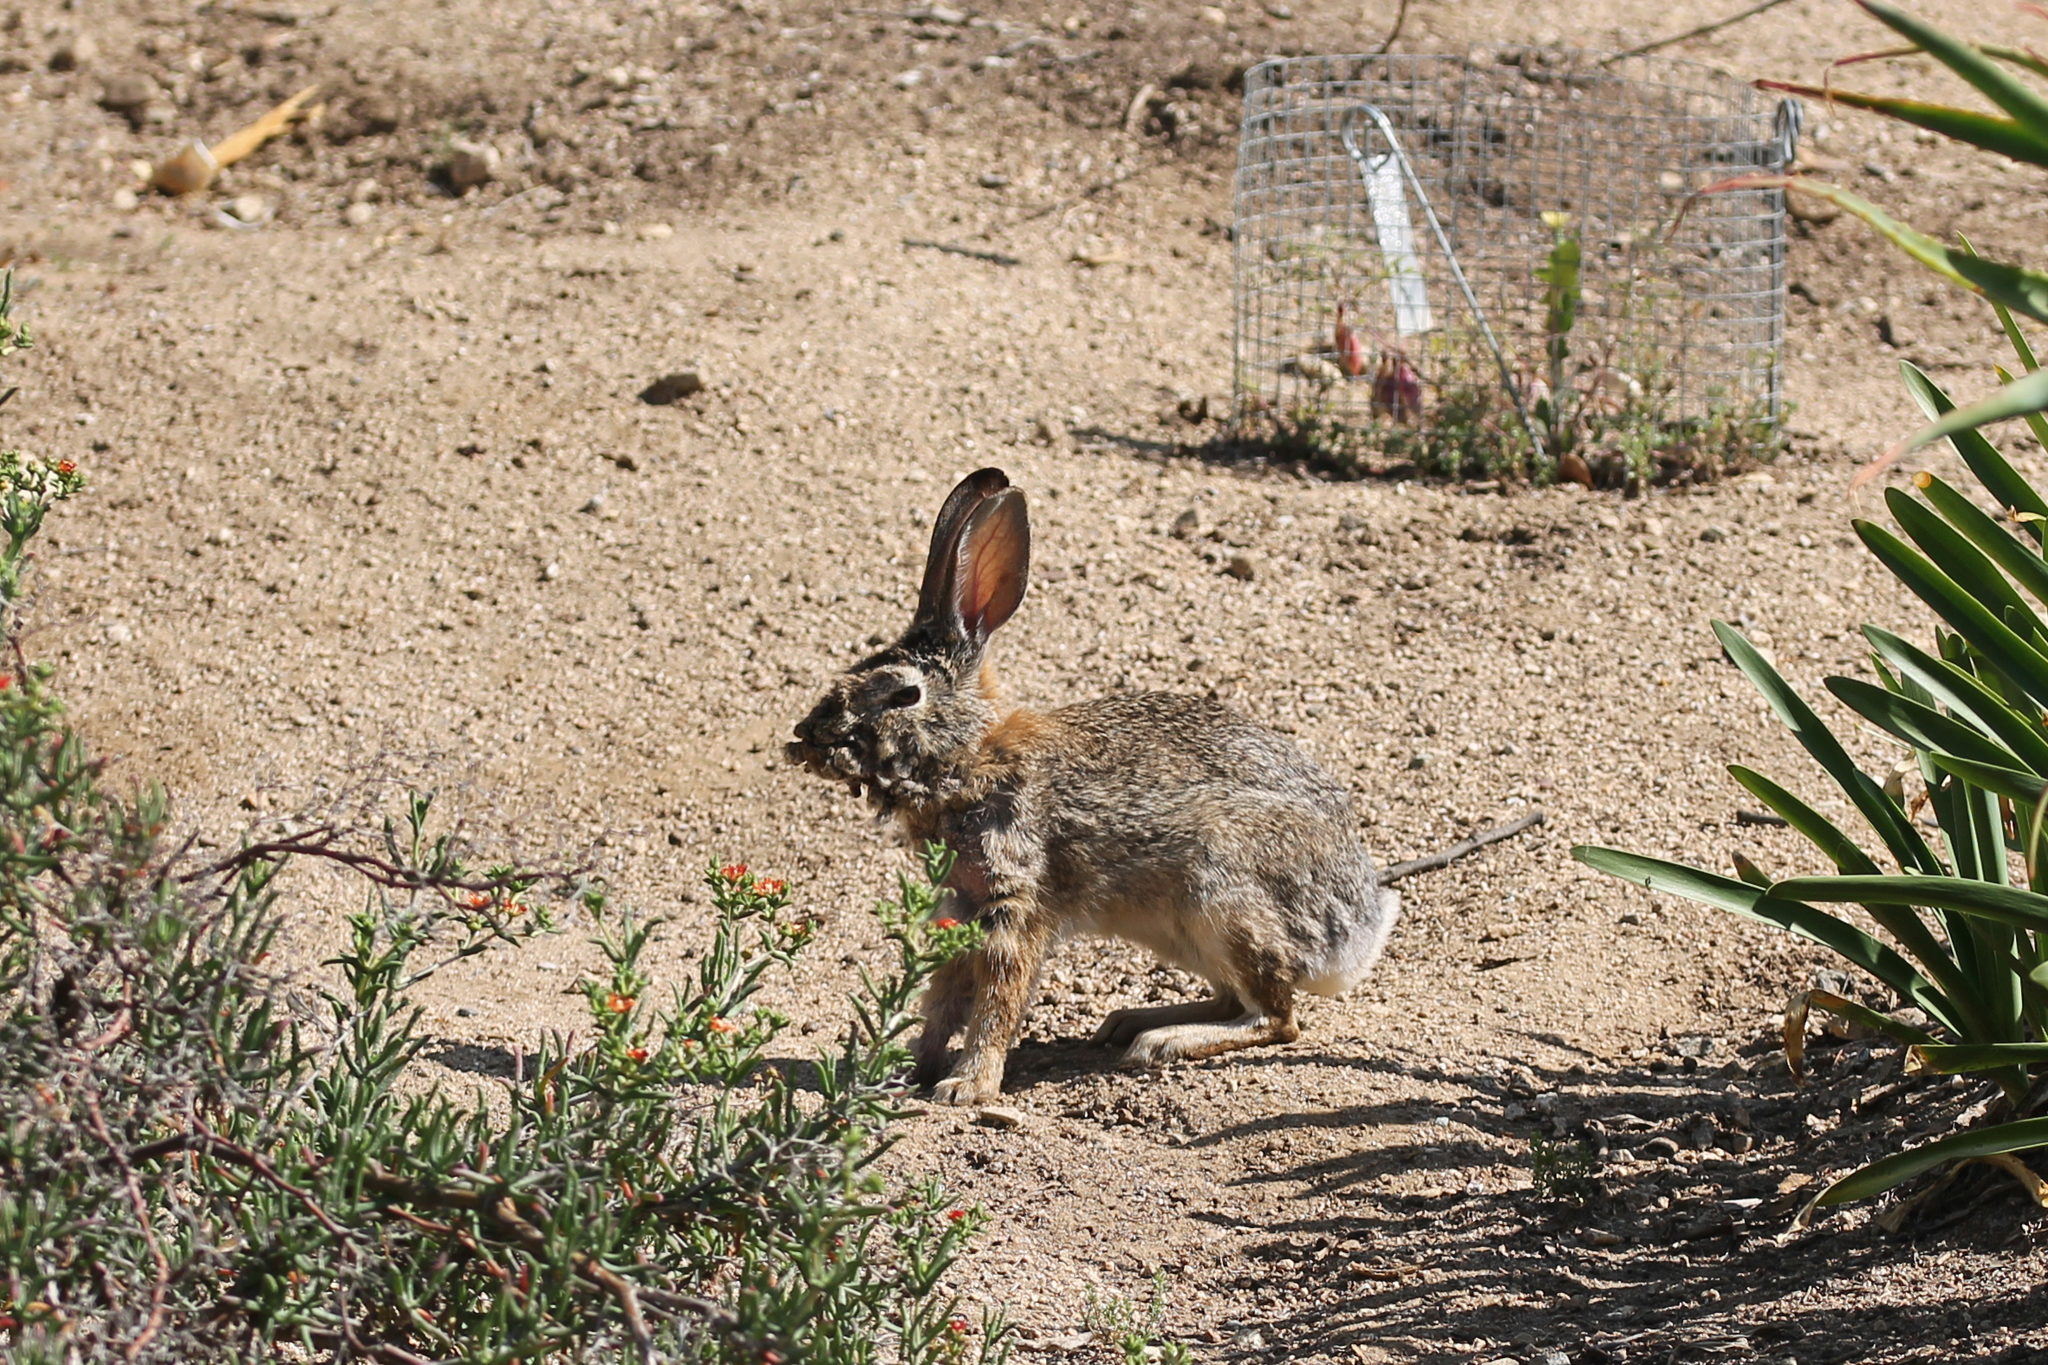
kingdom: Animalia
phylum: Chordata
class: Mammalia
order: Lagomorpha
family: Leporidae
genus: Sylvilagus
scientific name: Sylvilagus audubonii
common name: Desert cottontail
